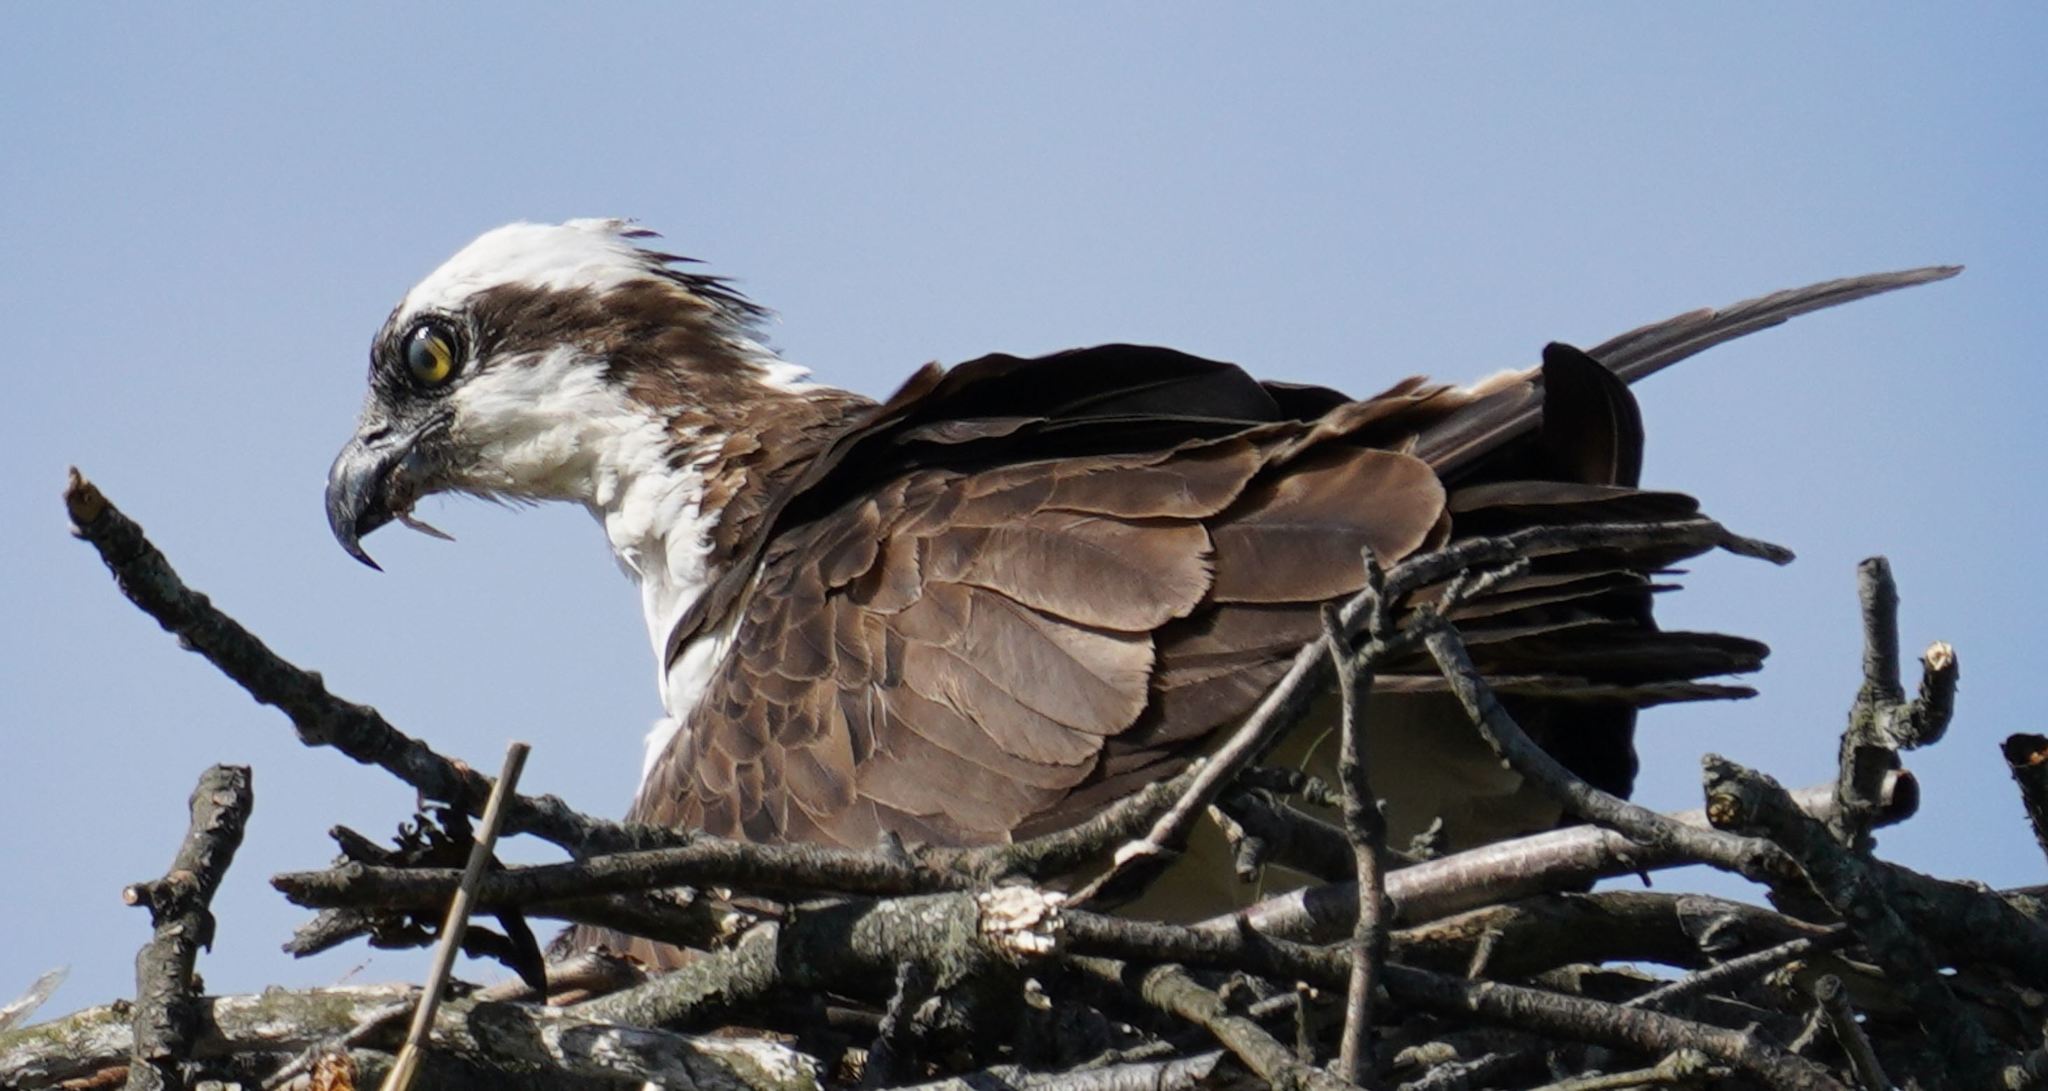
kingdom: Animalia
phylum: Chordata
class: Aves
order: Accipitriformes
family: Pandionidae
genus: Pandion
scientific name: Pandion haliaetus
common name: Osprey
